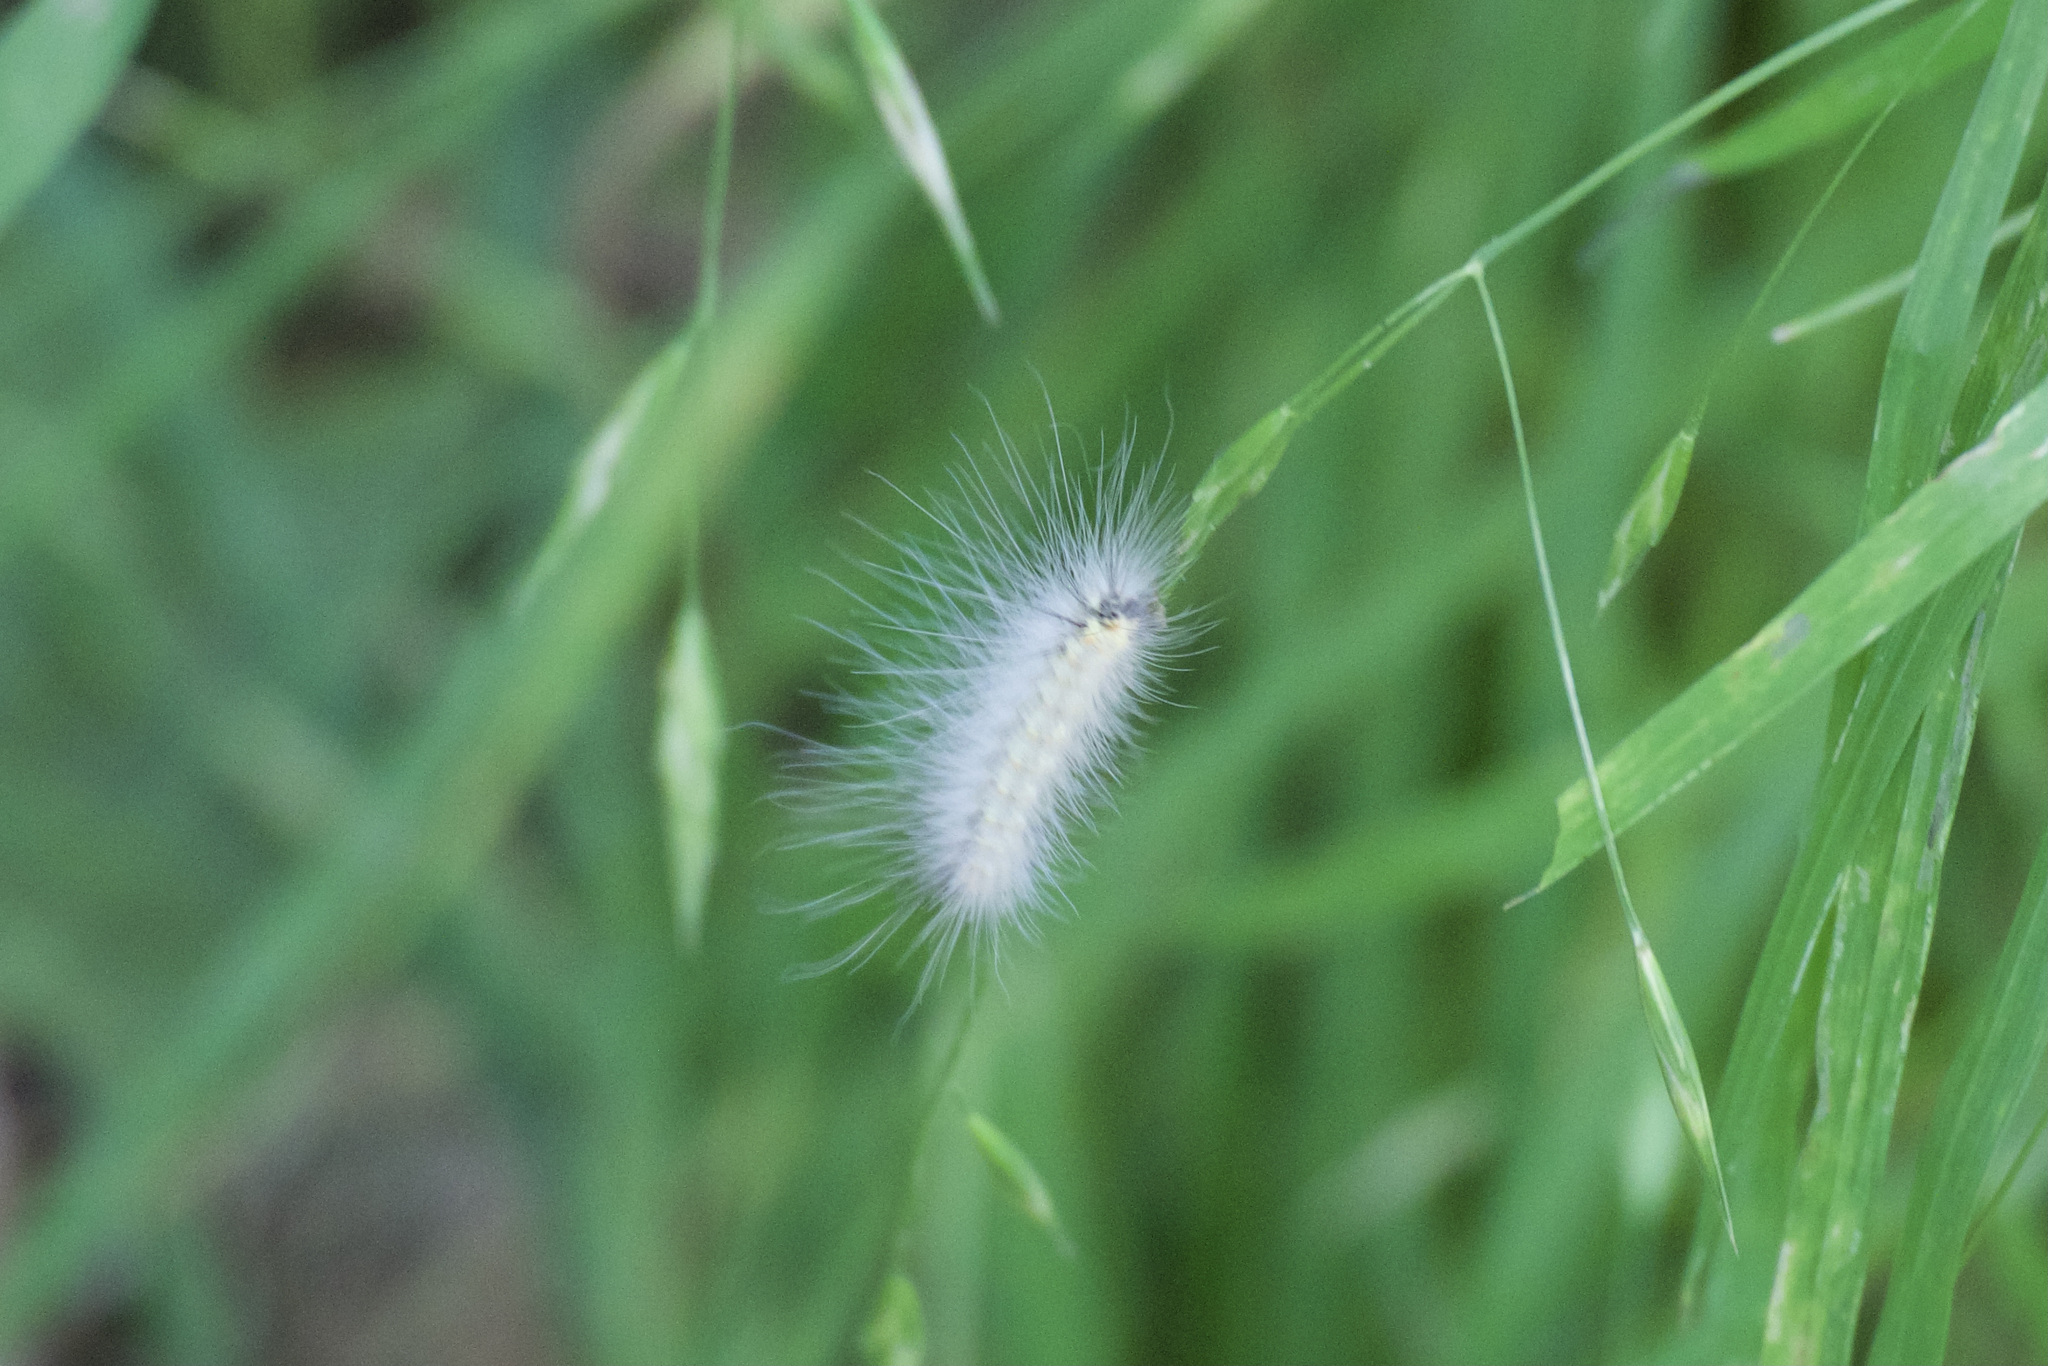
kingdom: Animalia
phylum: Arthropoda
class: Insecta
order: Lepidoptera
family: Erebidae
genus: Hyphantria
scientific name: Hyphantria cunea
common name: American white moth
